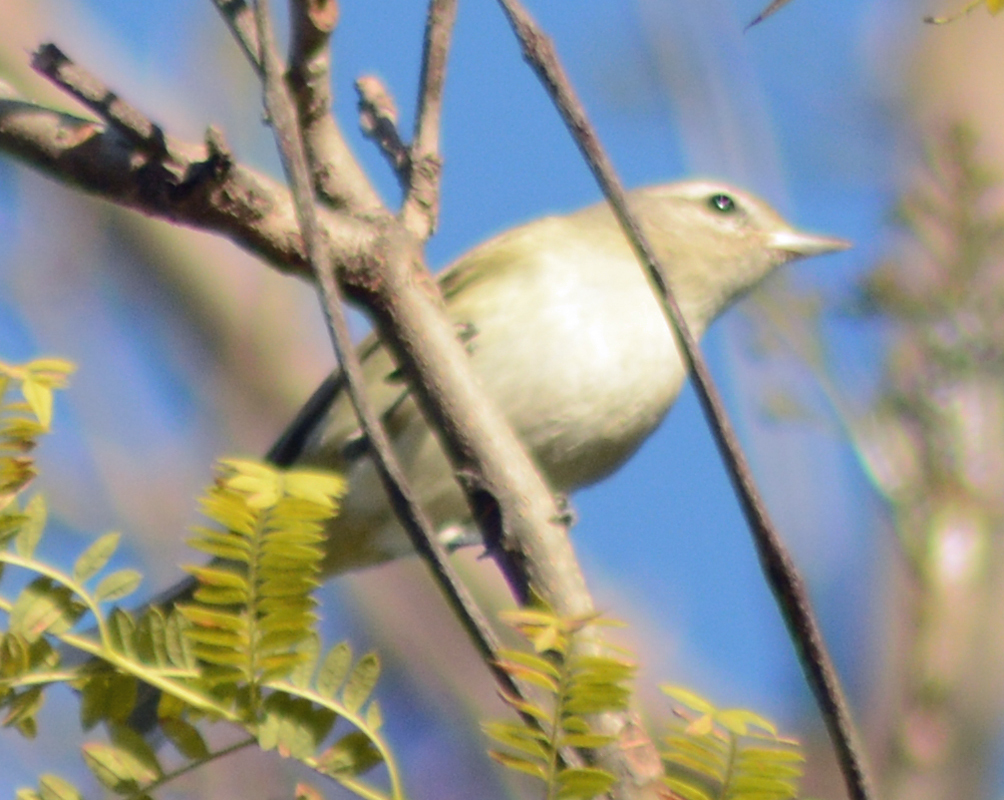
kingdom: Animalia
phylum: Chordata
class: Aves
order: Passeriformes
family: Vireonidae
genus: Vireo
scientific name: Vireo gilvus
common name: Warbling vireo
